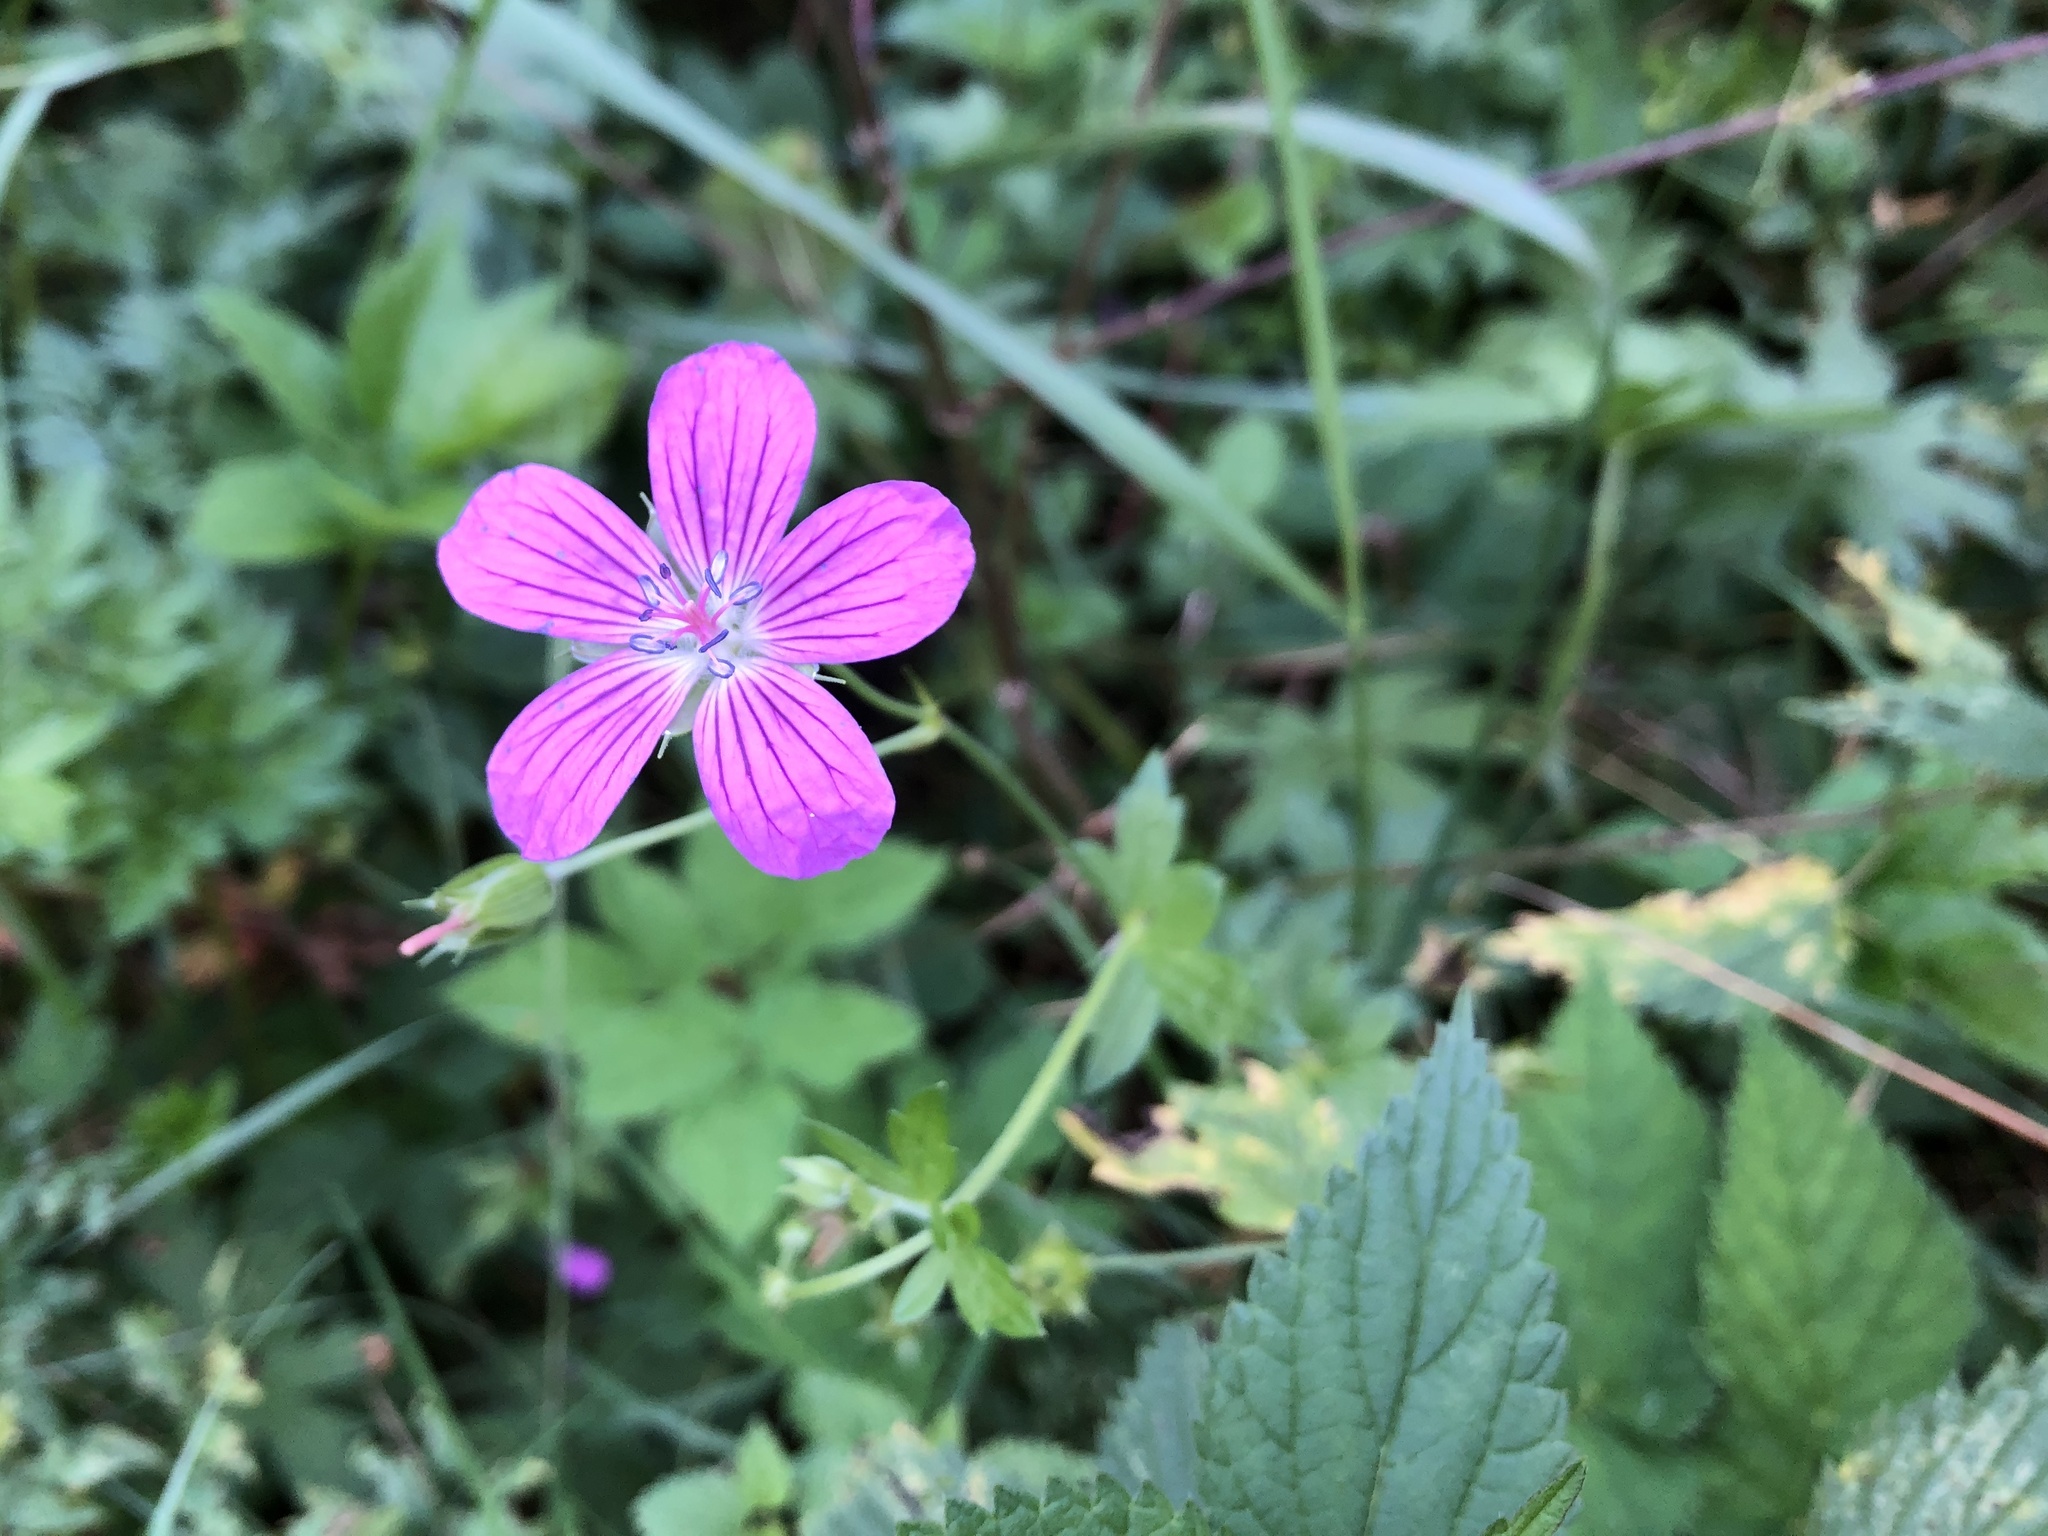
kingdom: Plantae
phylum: Tracheophyta
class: Magnoliopsida
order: Geraniales
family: Geraniaceae
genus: Geranium
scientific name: Geranium palustre
